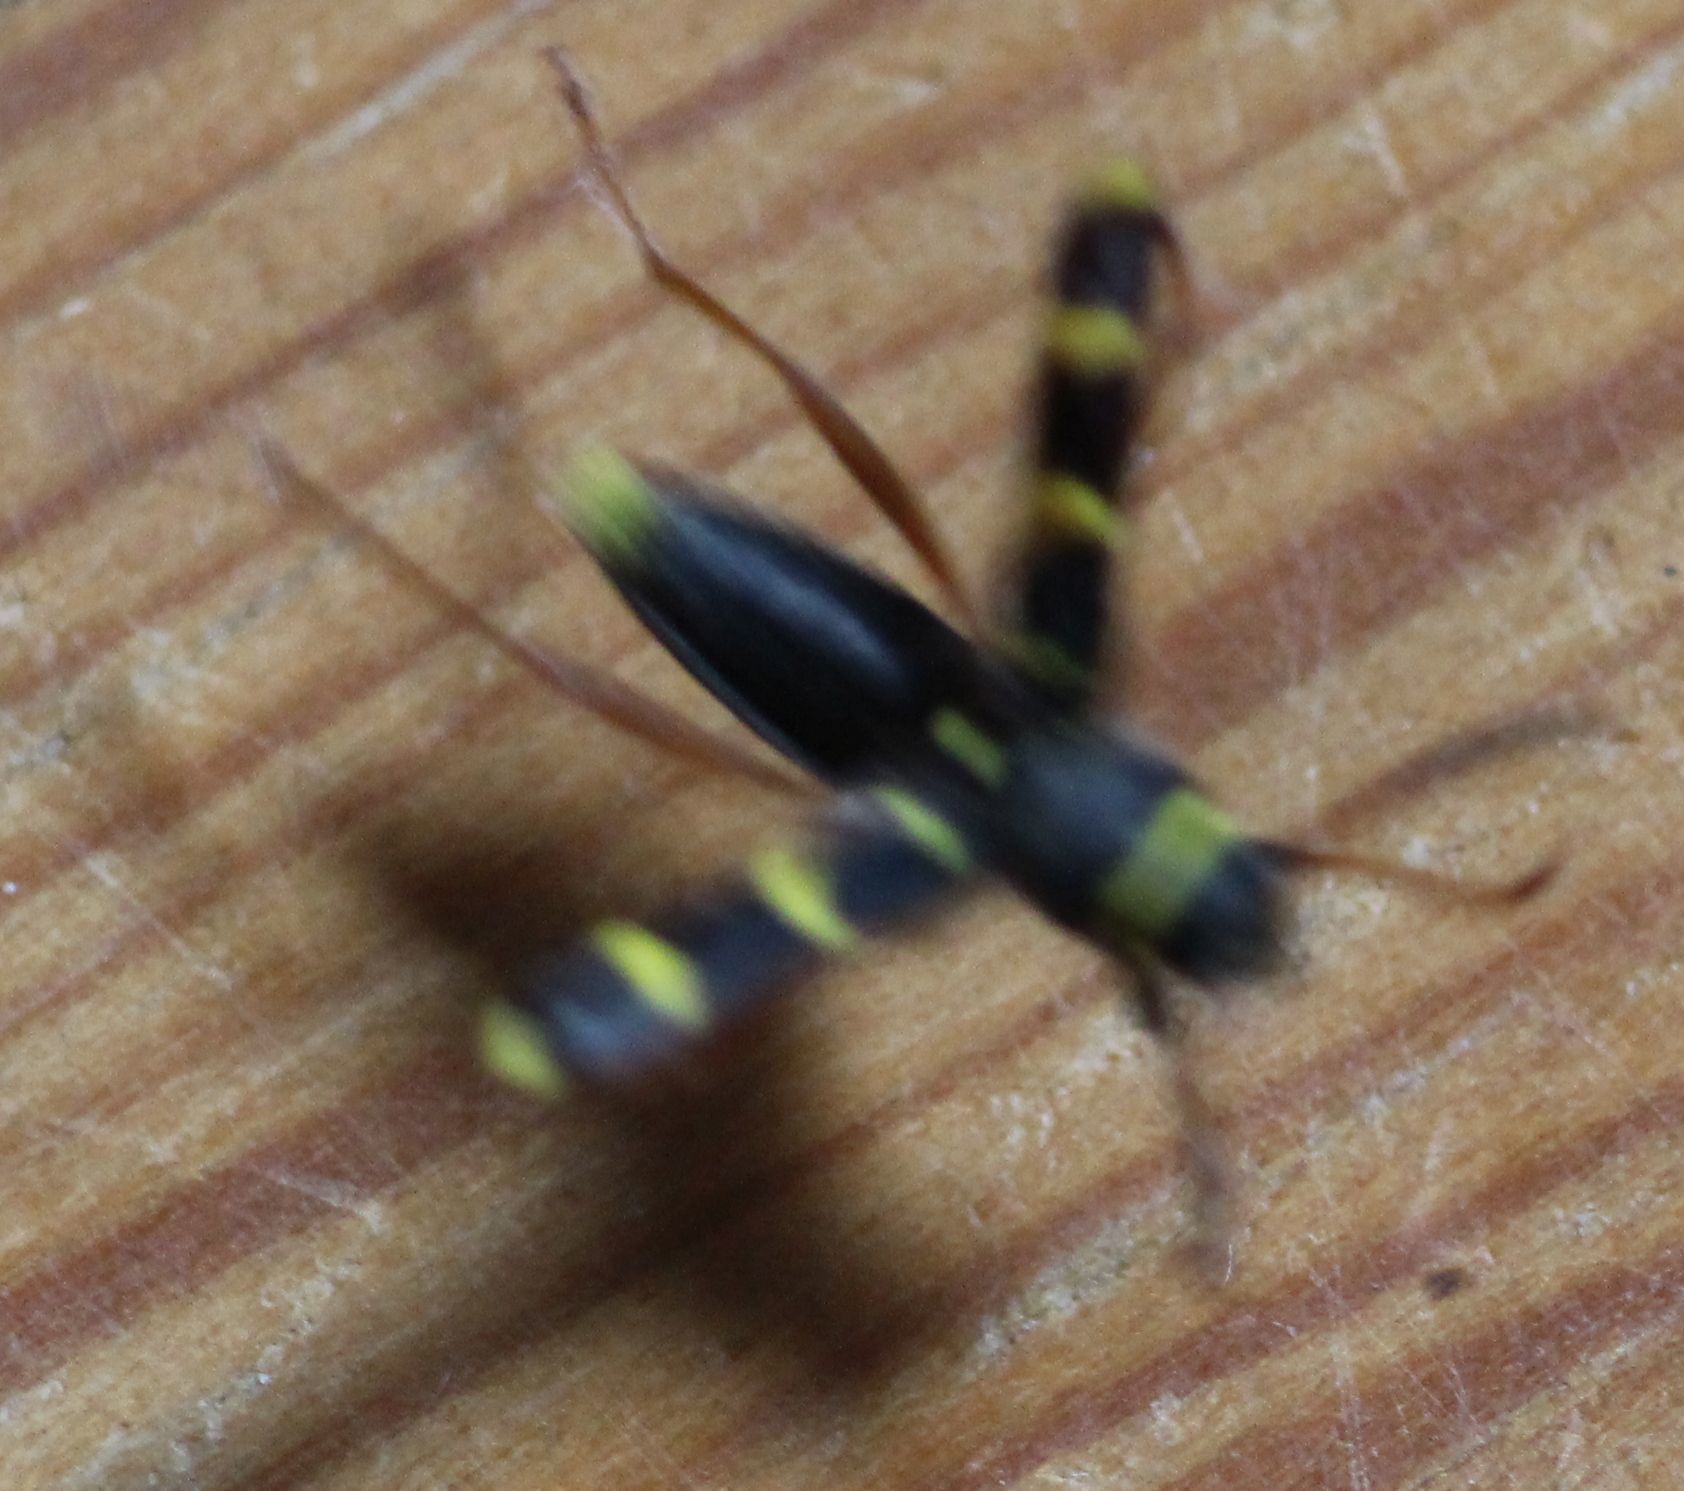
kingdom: Animalia
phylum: Arthropoda
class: Insecta
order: Coleoptera
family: Cerambycidae
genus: Clytus
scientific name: Clytus arietis
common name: Wasp beetle
